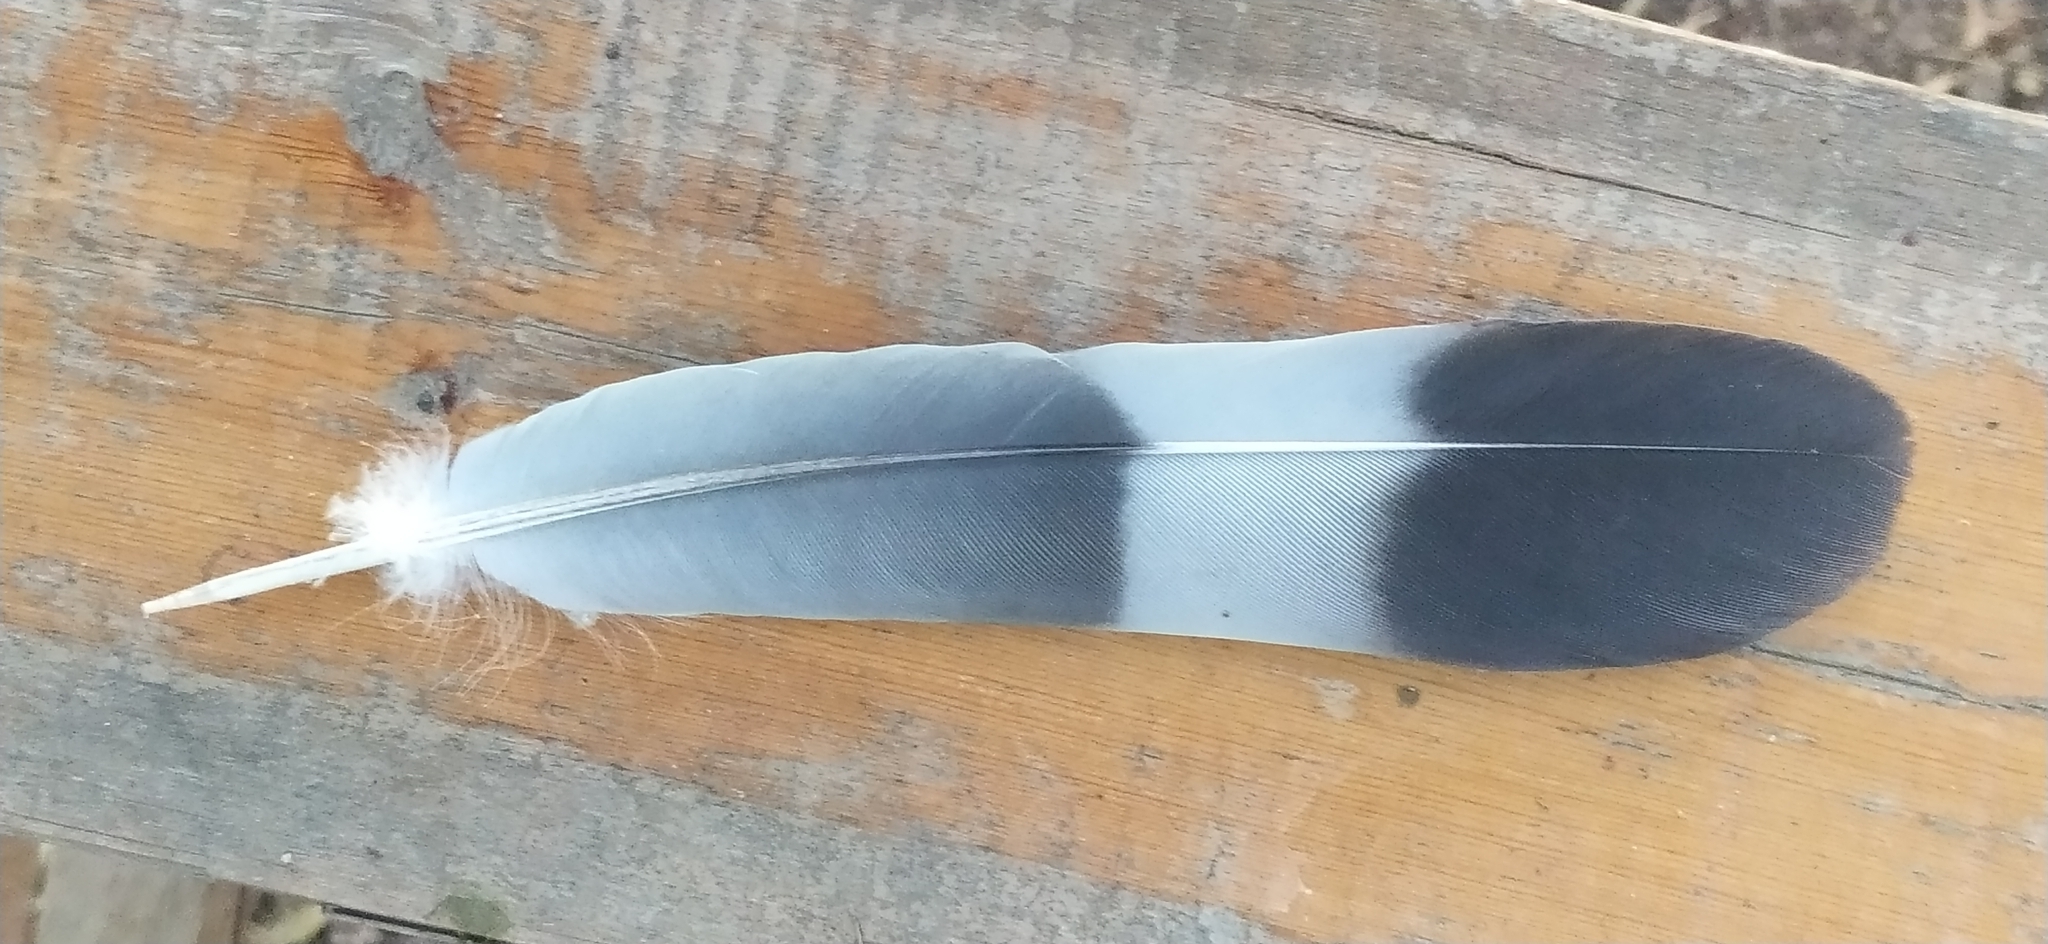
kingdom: Animalia
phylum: Chordata
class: Aves
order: Columbiformes
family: Columbidae
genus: Columba
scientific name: Columba palumbus
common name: Common wood pigeon
